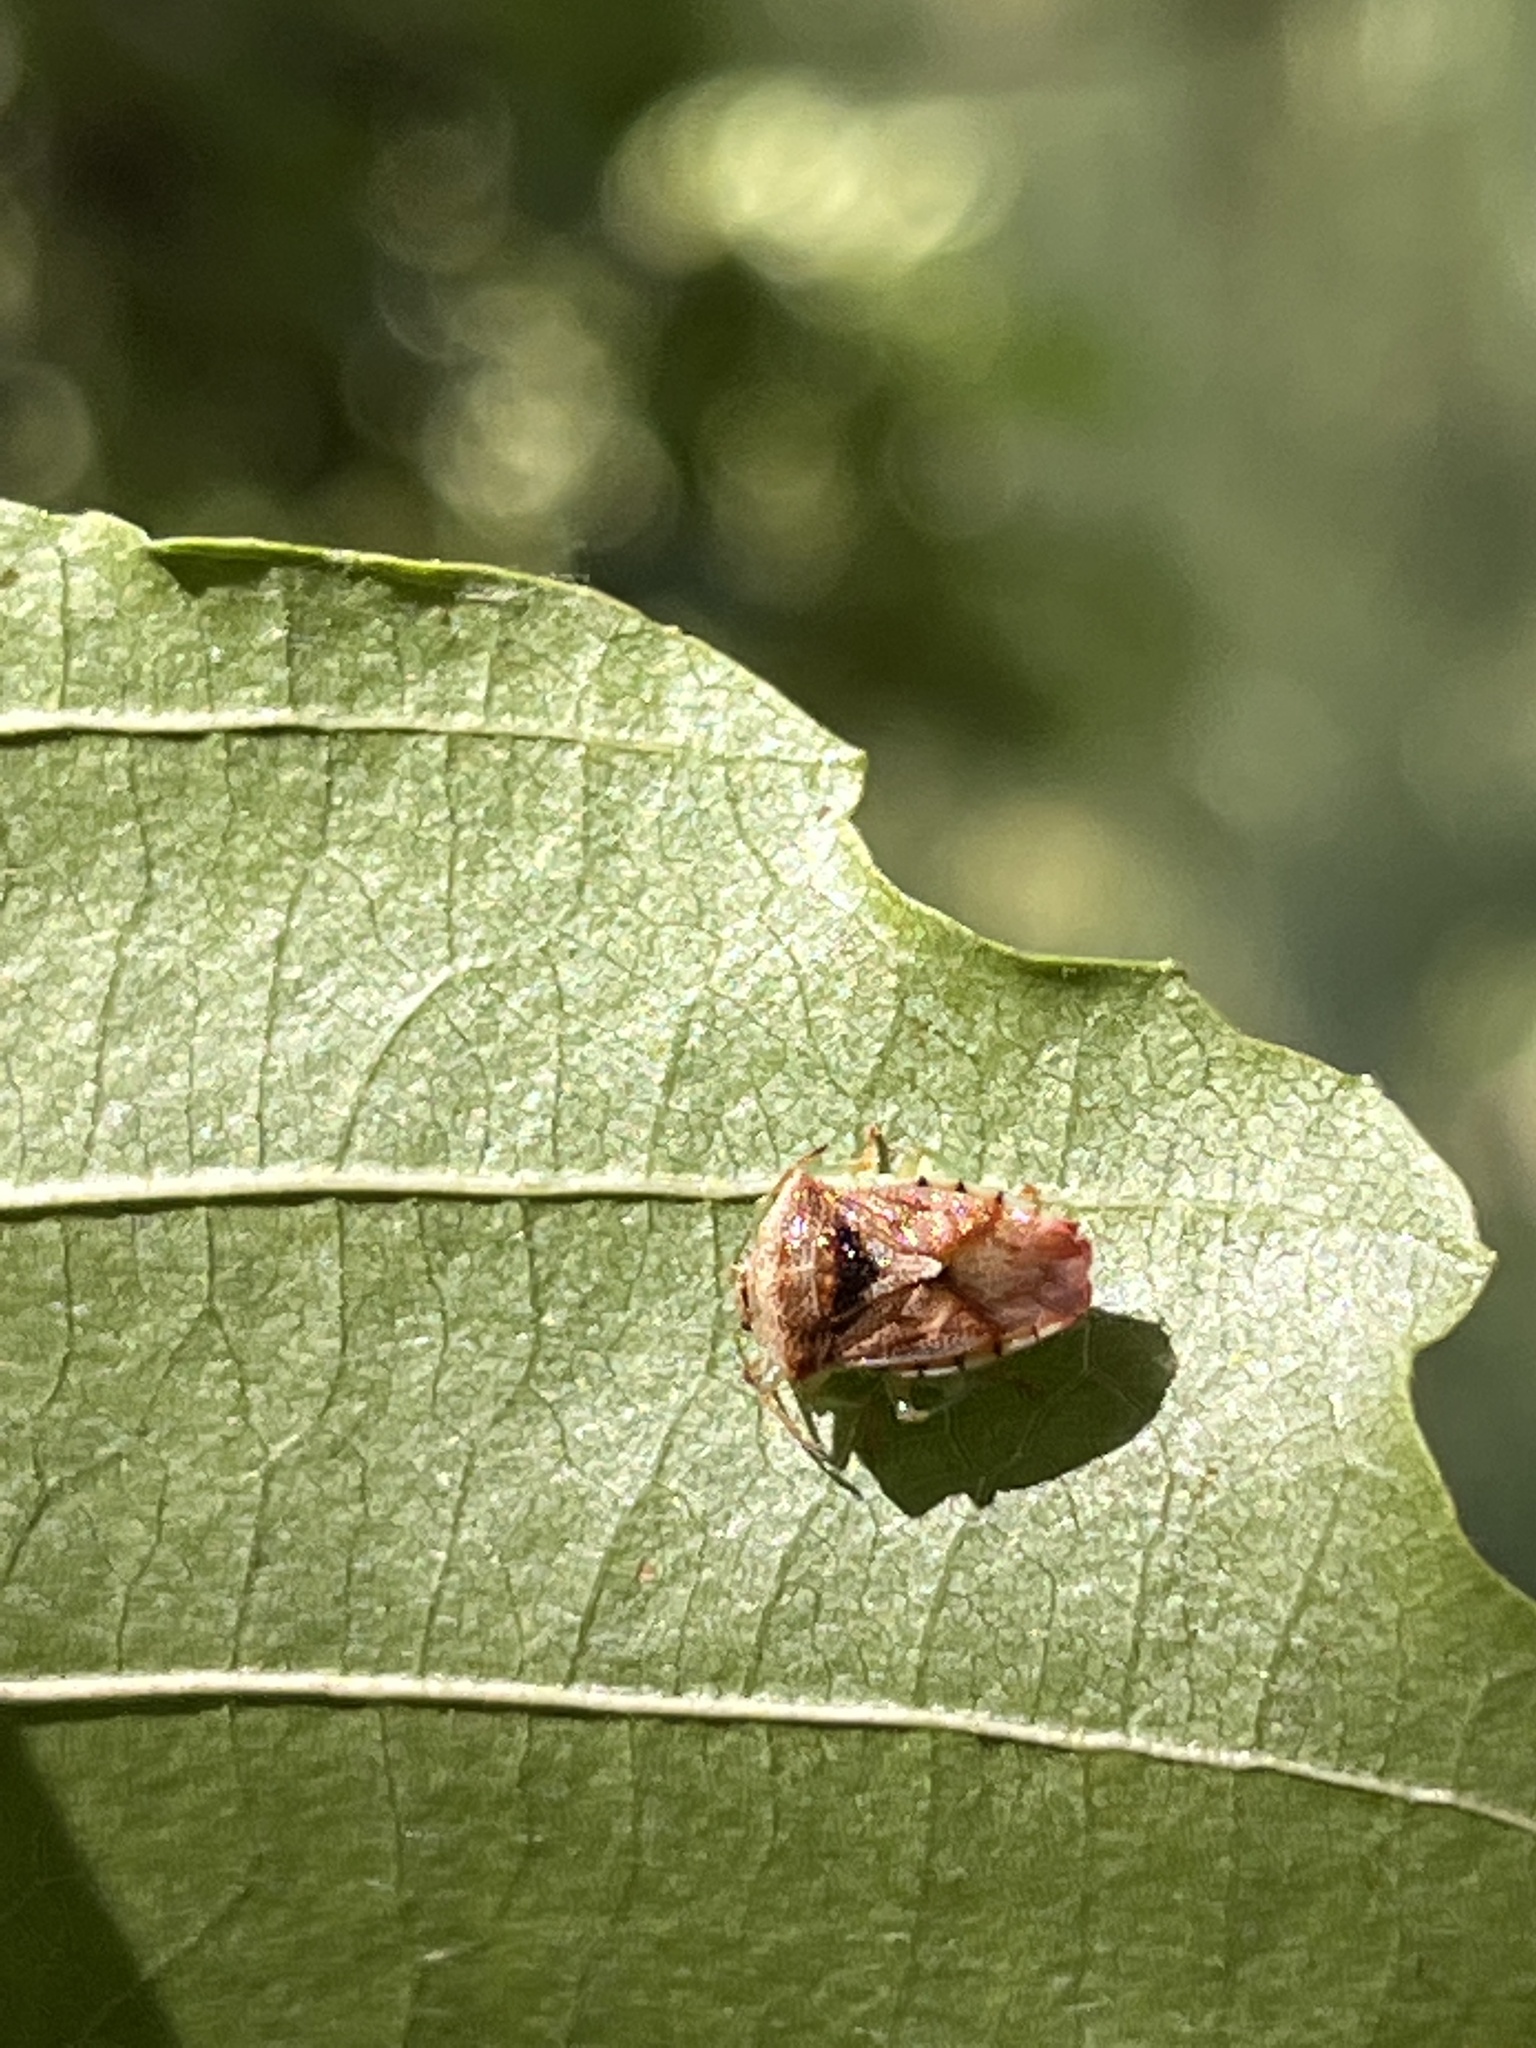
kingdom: Animalia
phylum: Arthropoda
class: Insecta
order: Hemiptera
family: Acanthosomatidae
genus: Elasmucha
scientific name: Elasmucha grisea
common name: Parent bug
